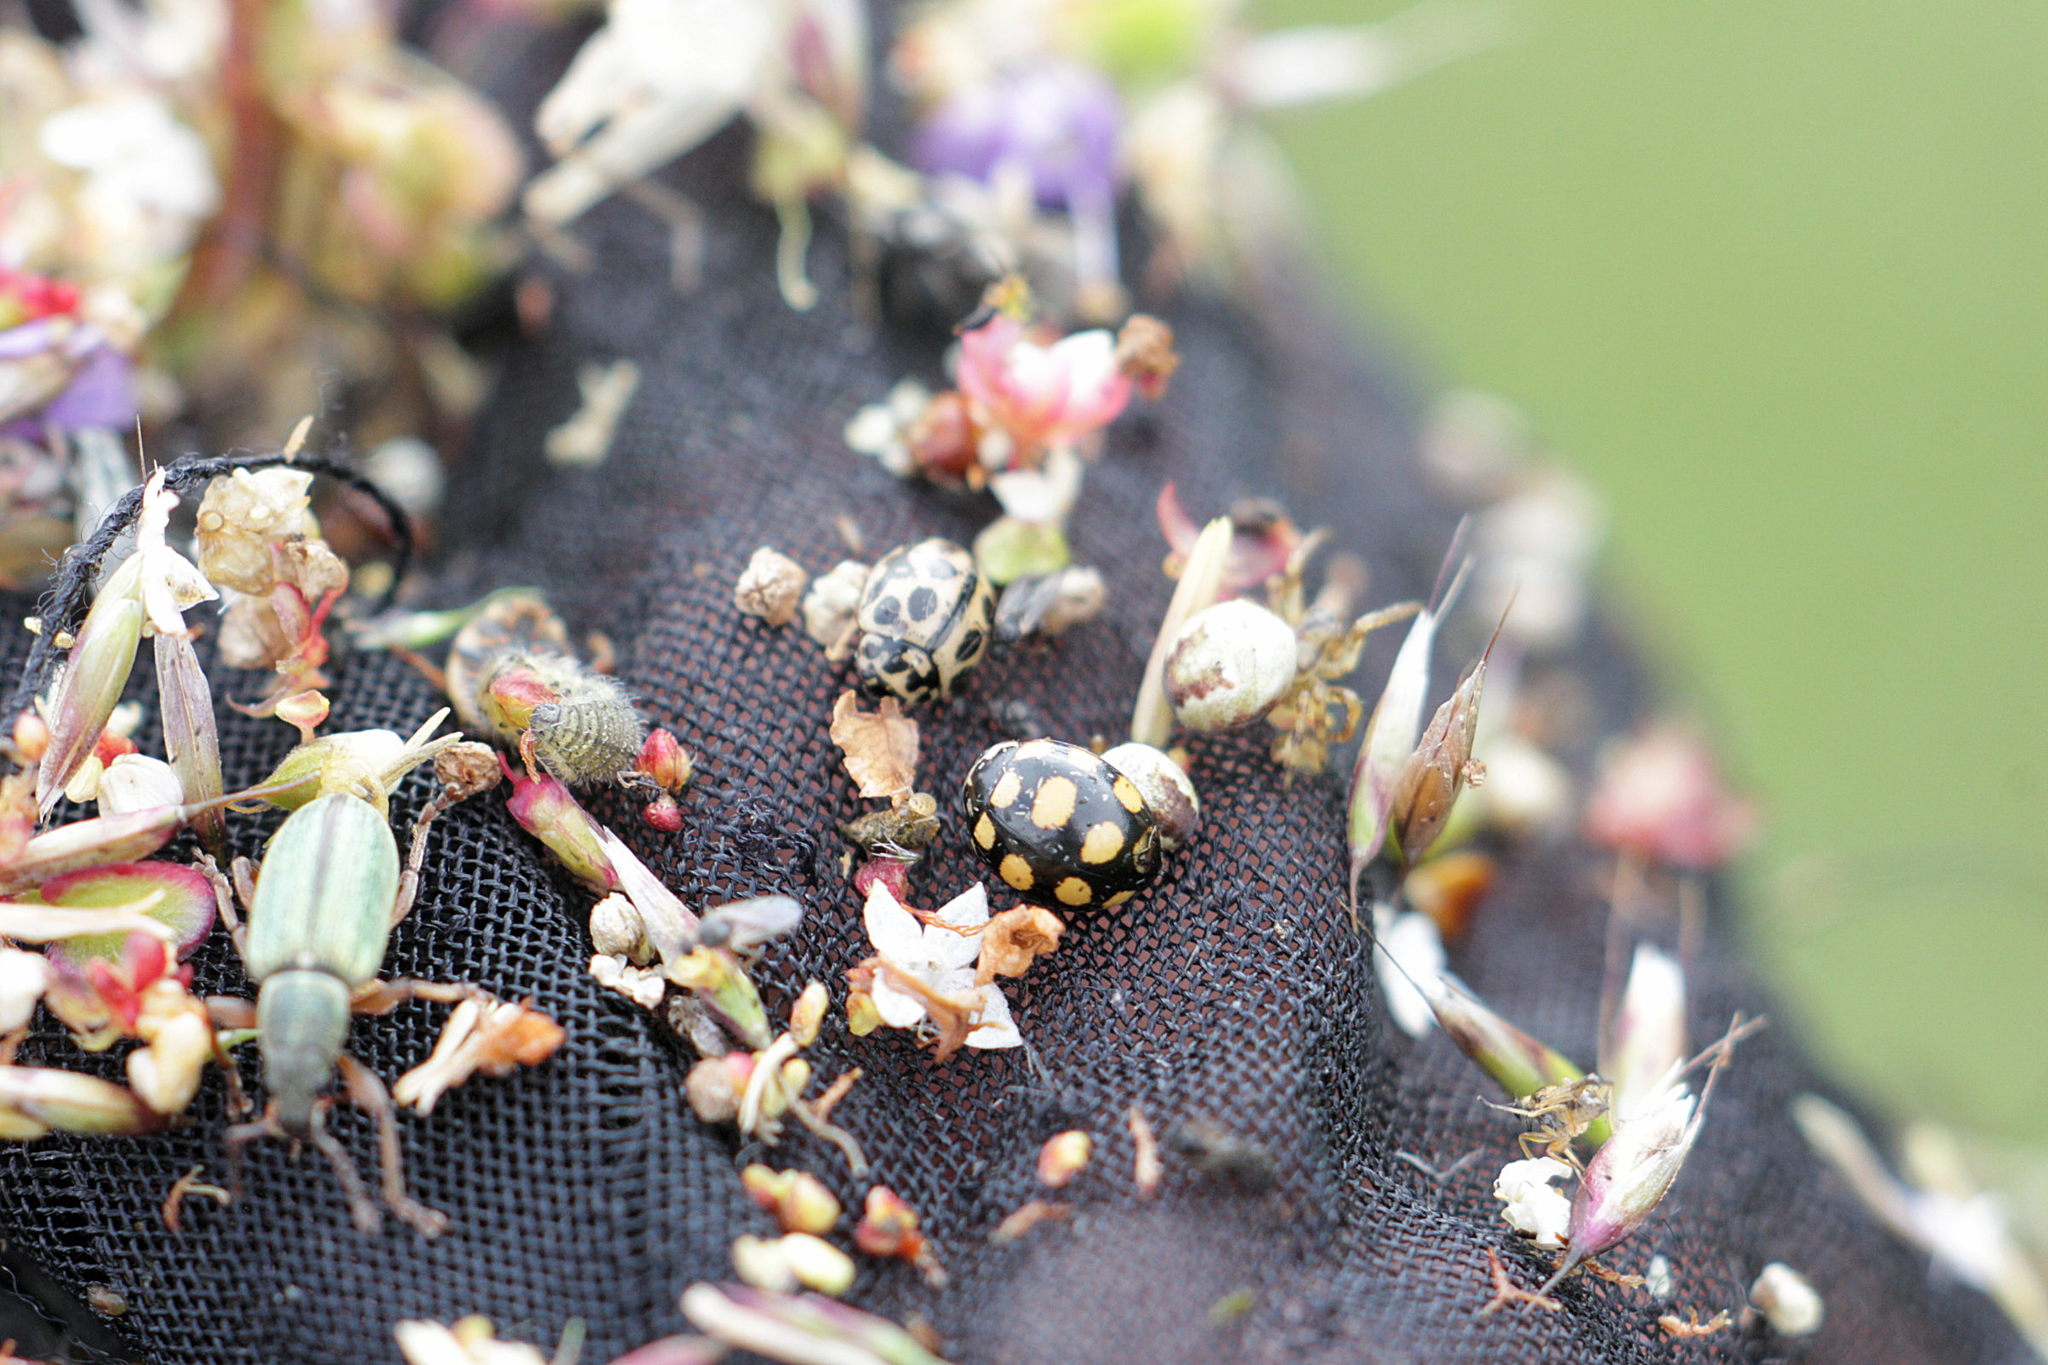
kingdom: Animalia
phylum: Arthropoda
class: Insecta
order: Coleoptera
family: Coccinellidae
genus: Coccinula
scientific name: Coccinula quatuordecimpustulata
